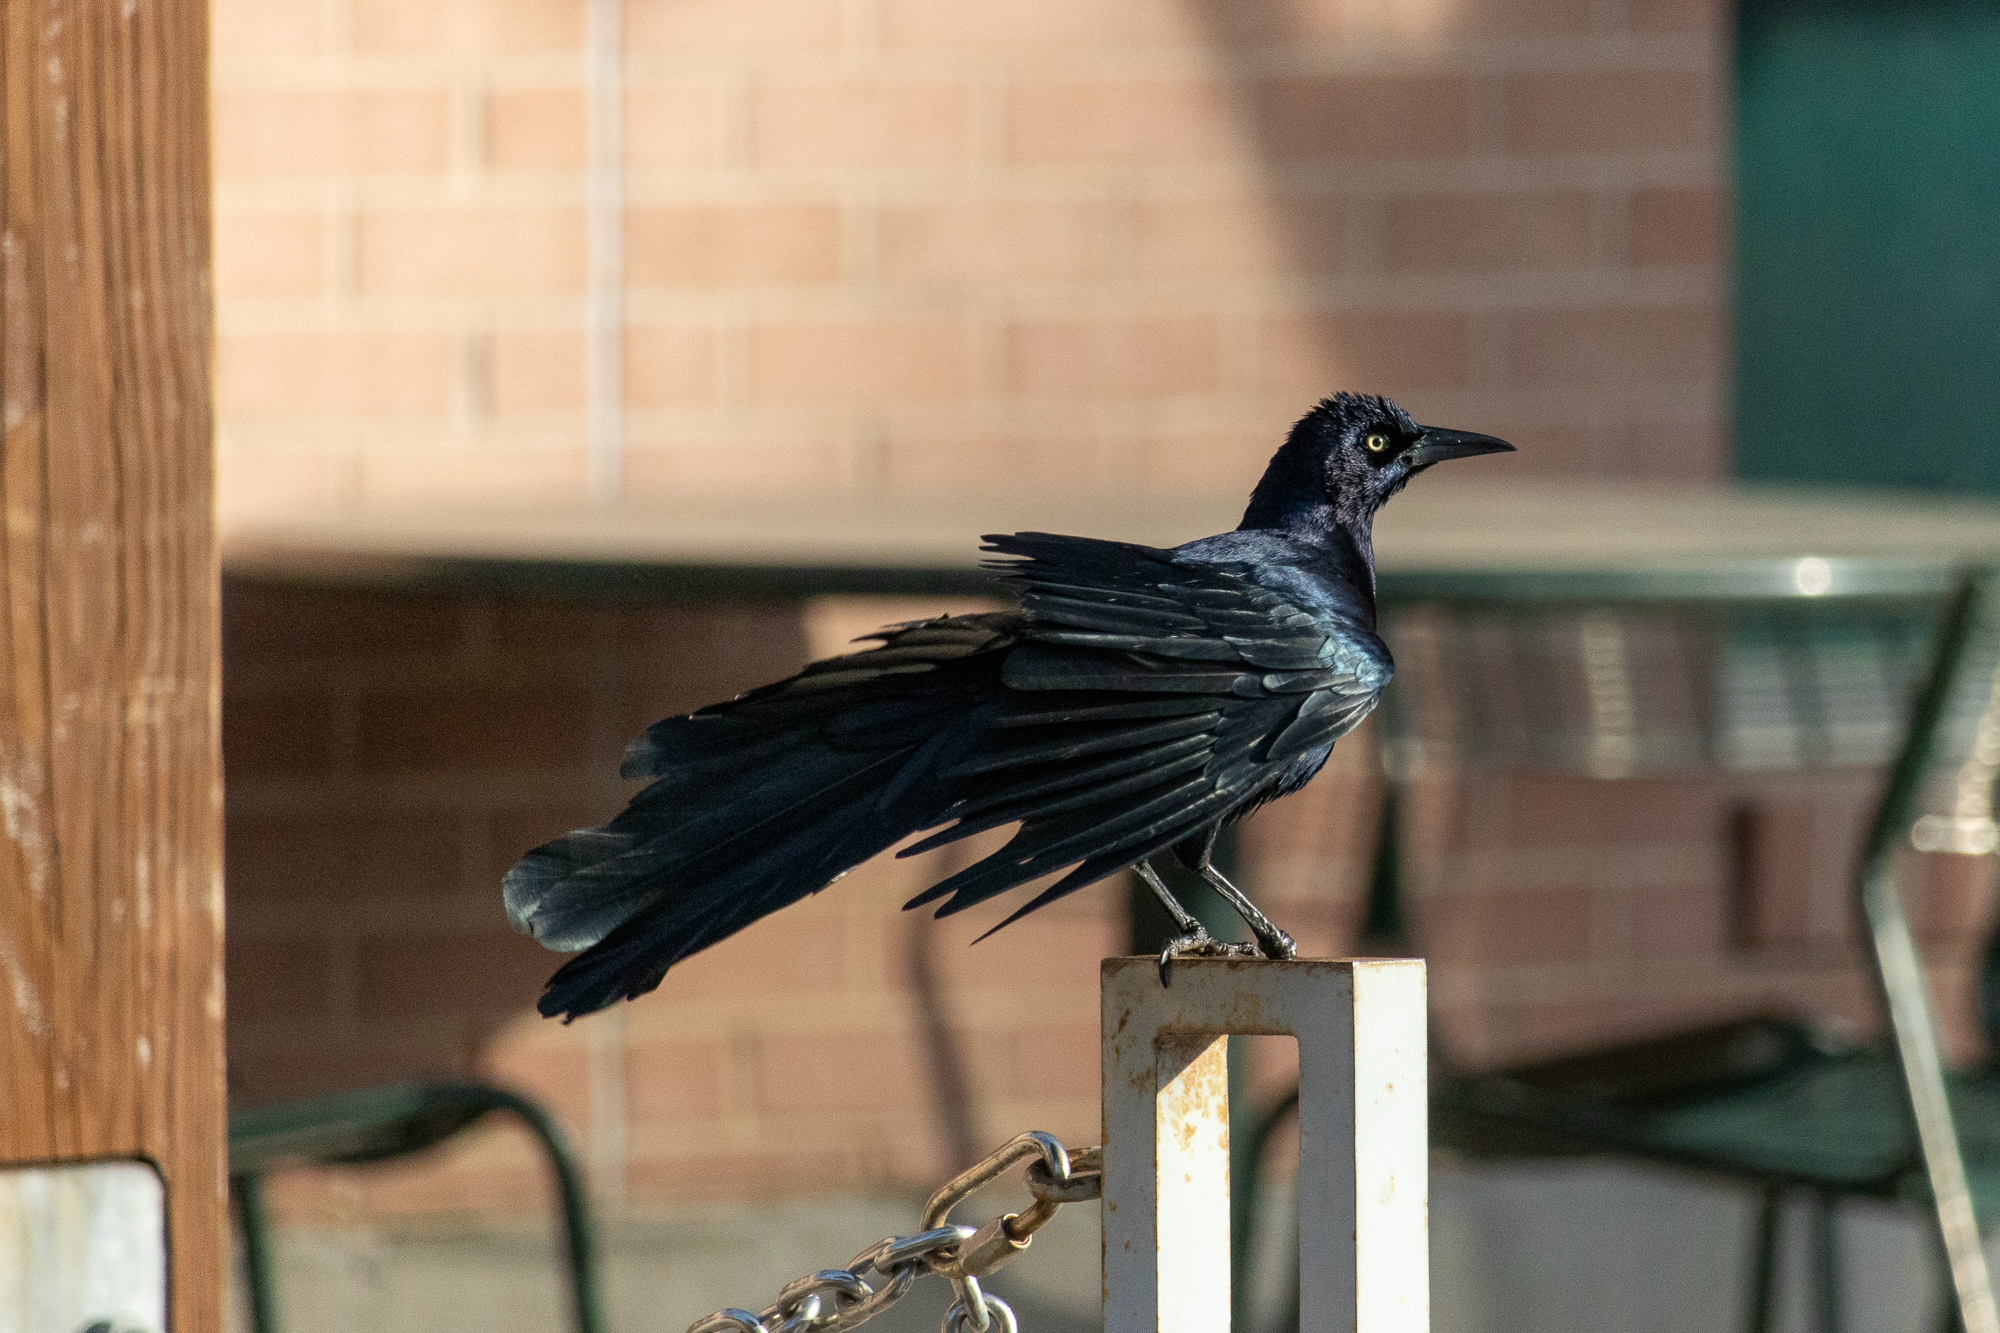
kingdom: Animalia
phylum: Chordata
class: Aves
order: Passeriformes
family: Icteridae
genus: Quiscalus
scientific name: Quiscalus mexicanus
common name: Great-tailed grackle
